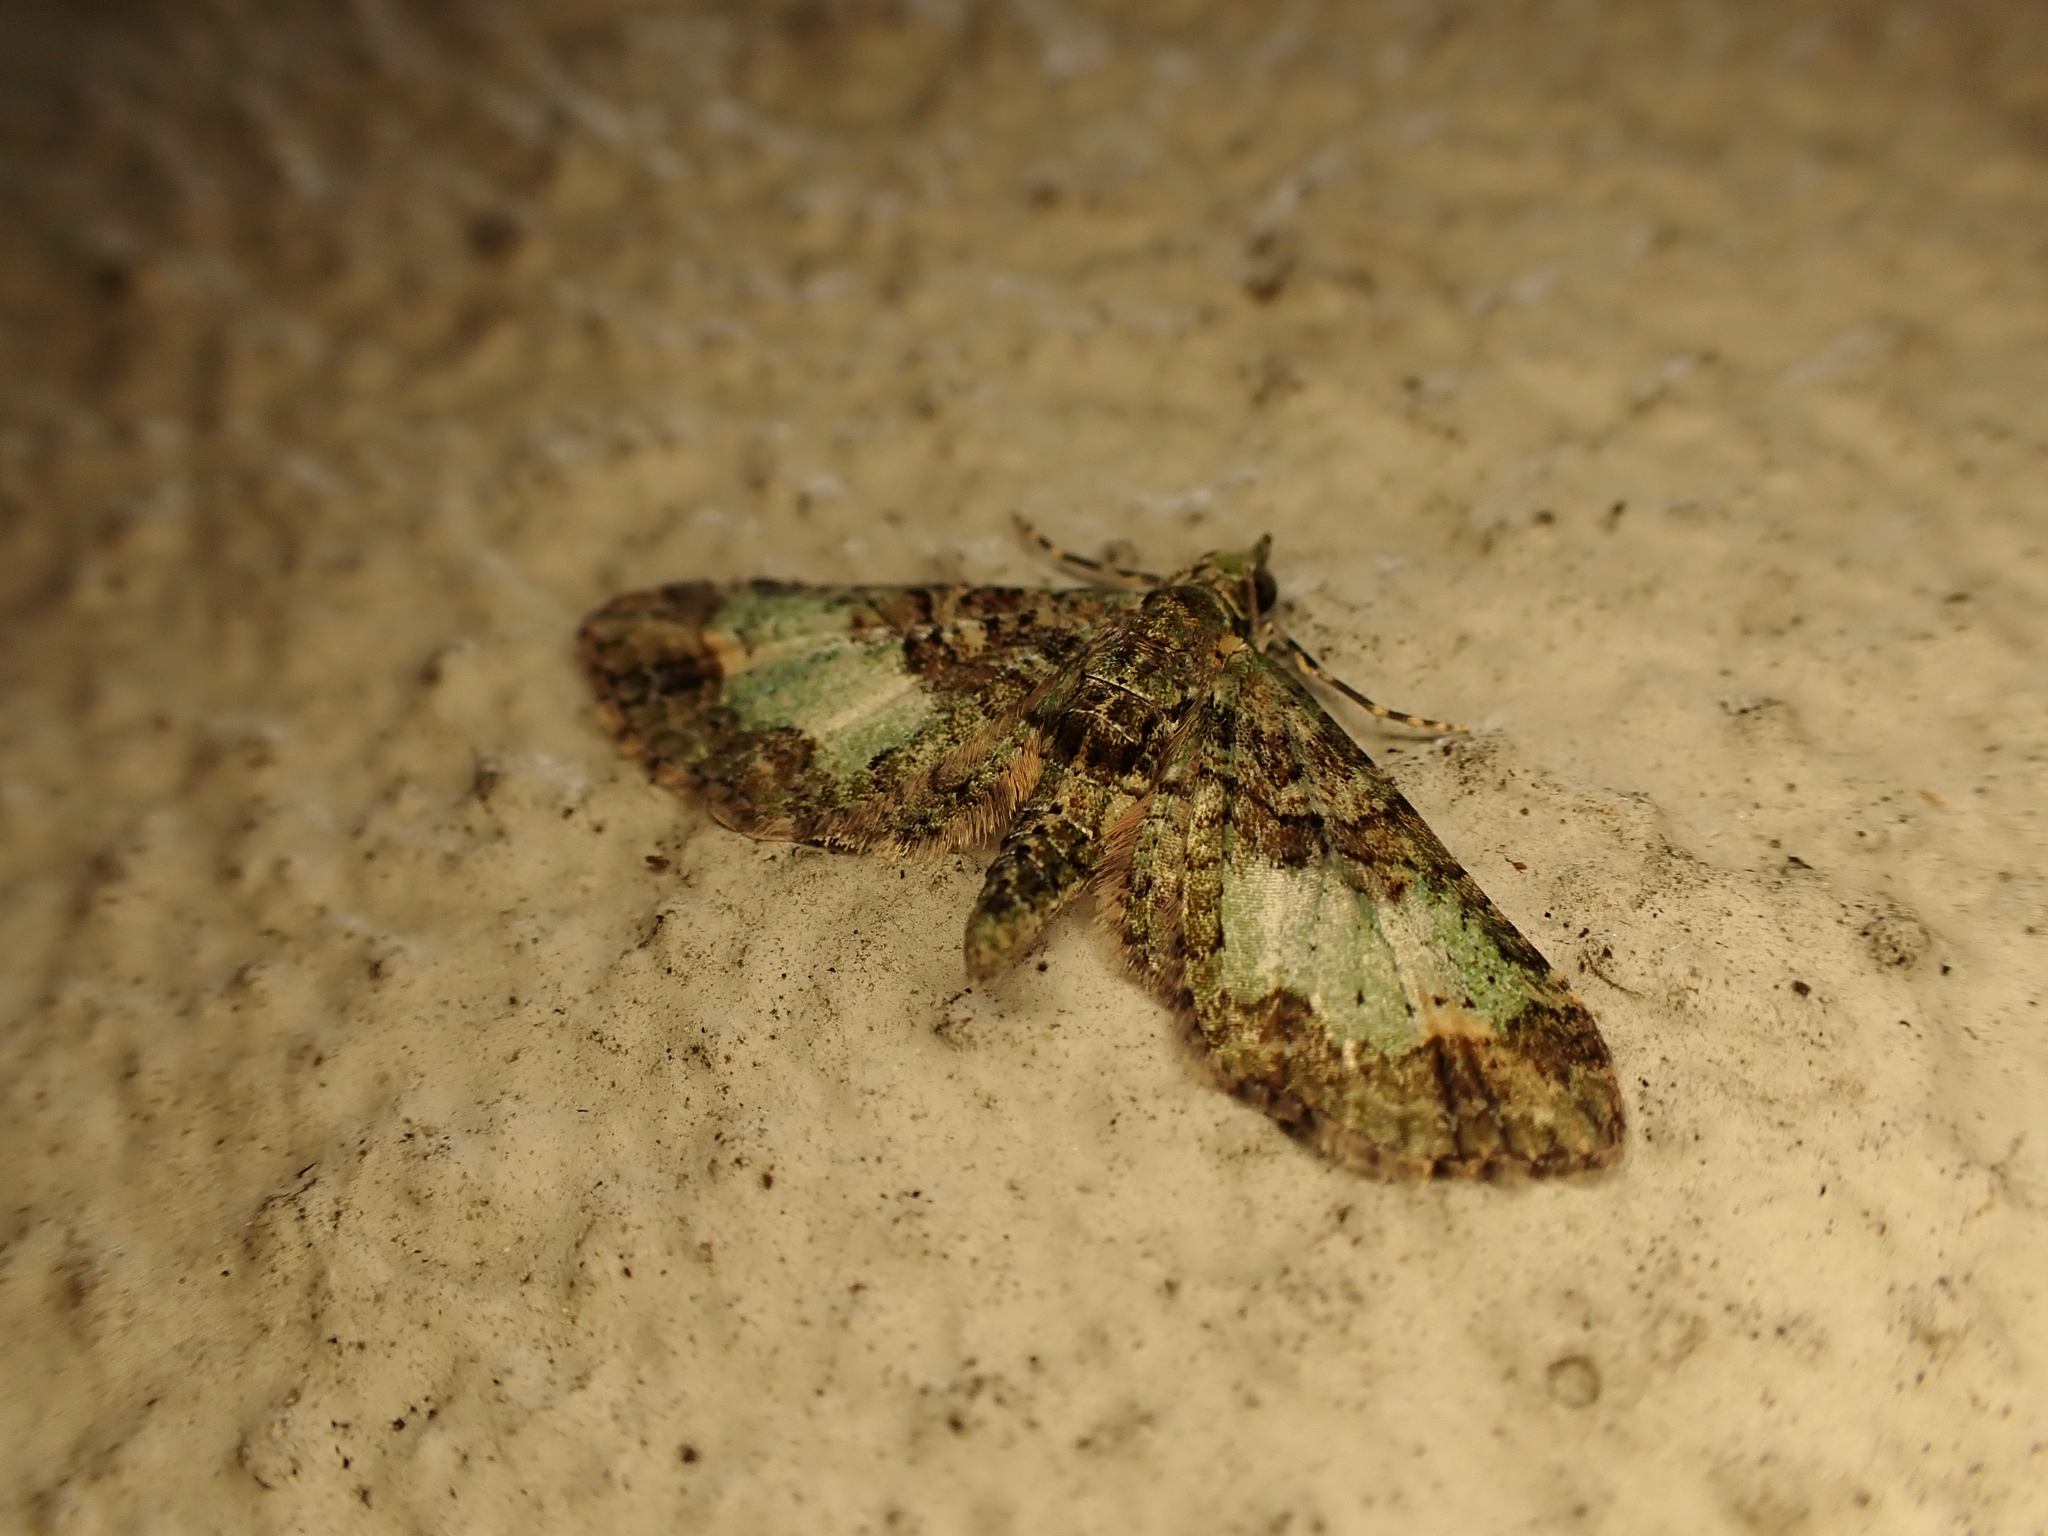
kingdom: Animalia
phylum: Arthropoda
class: Insecta
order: Lepidoptera
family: Geometridae
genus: Idaea
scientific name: Idaea mutanda
